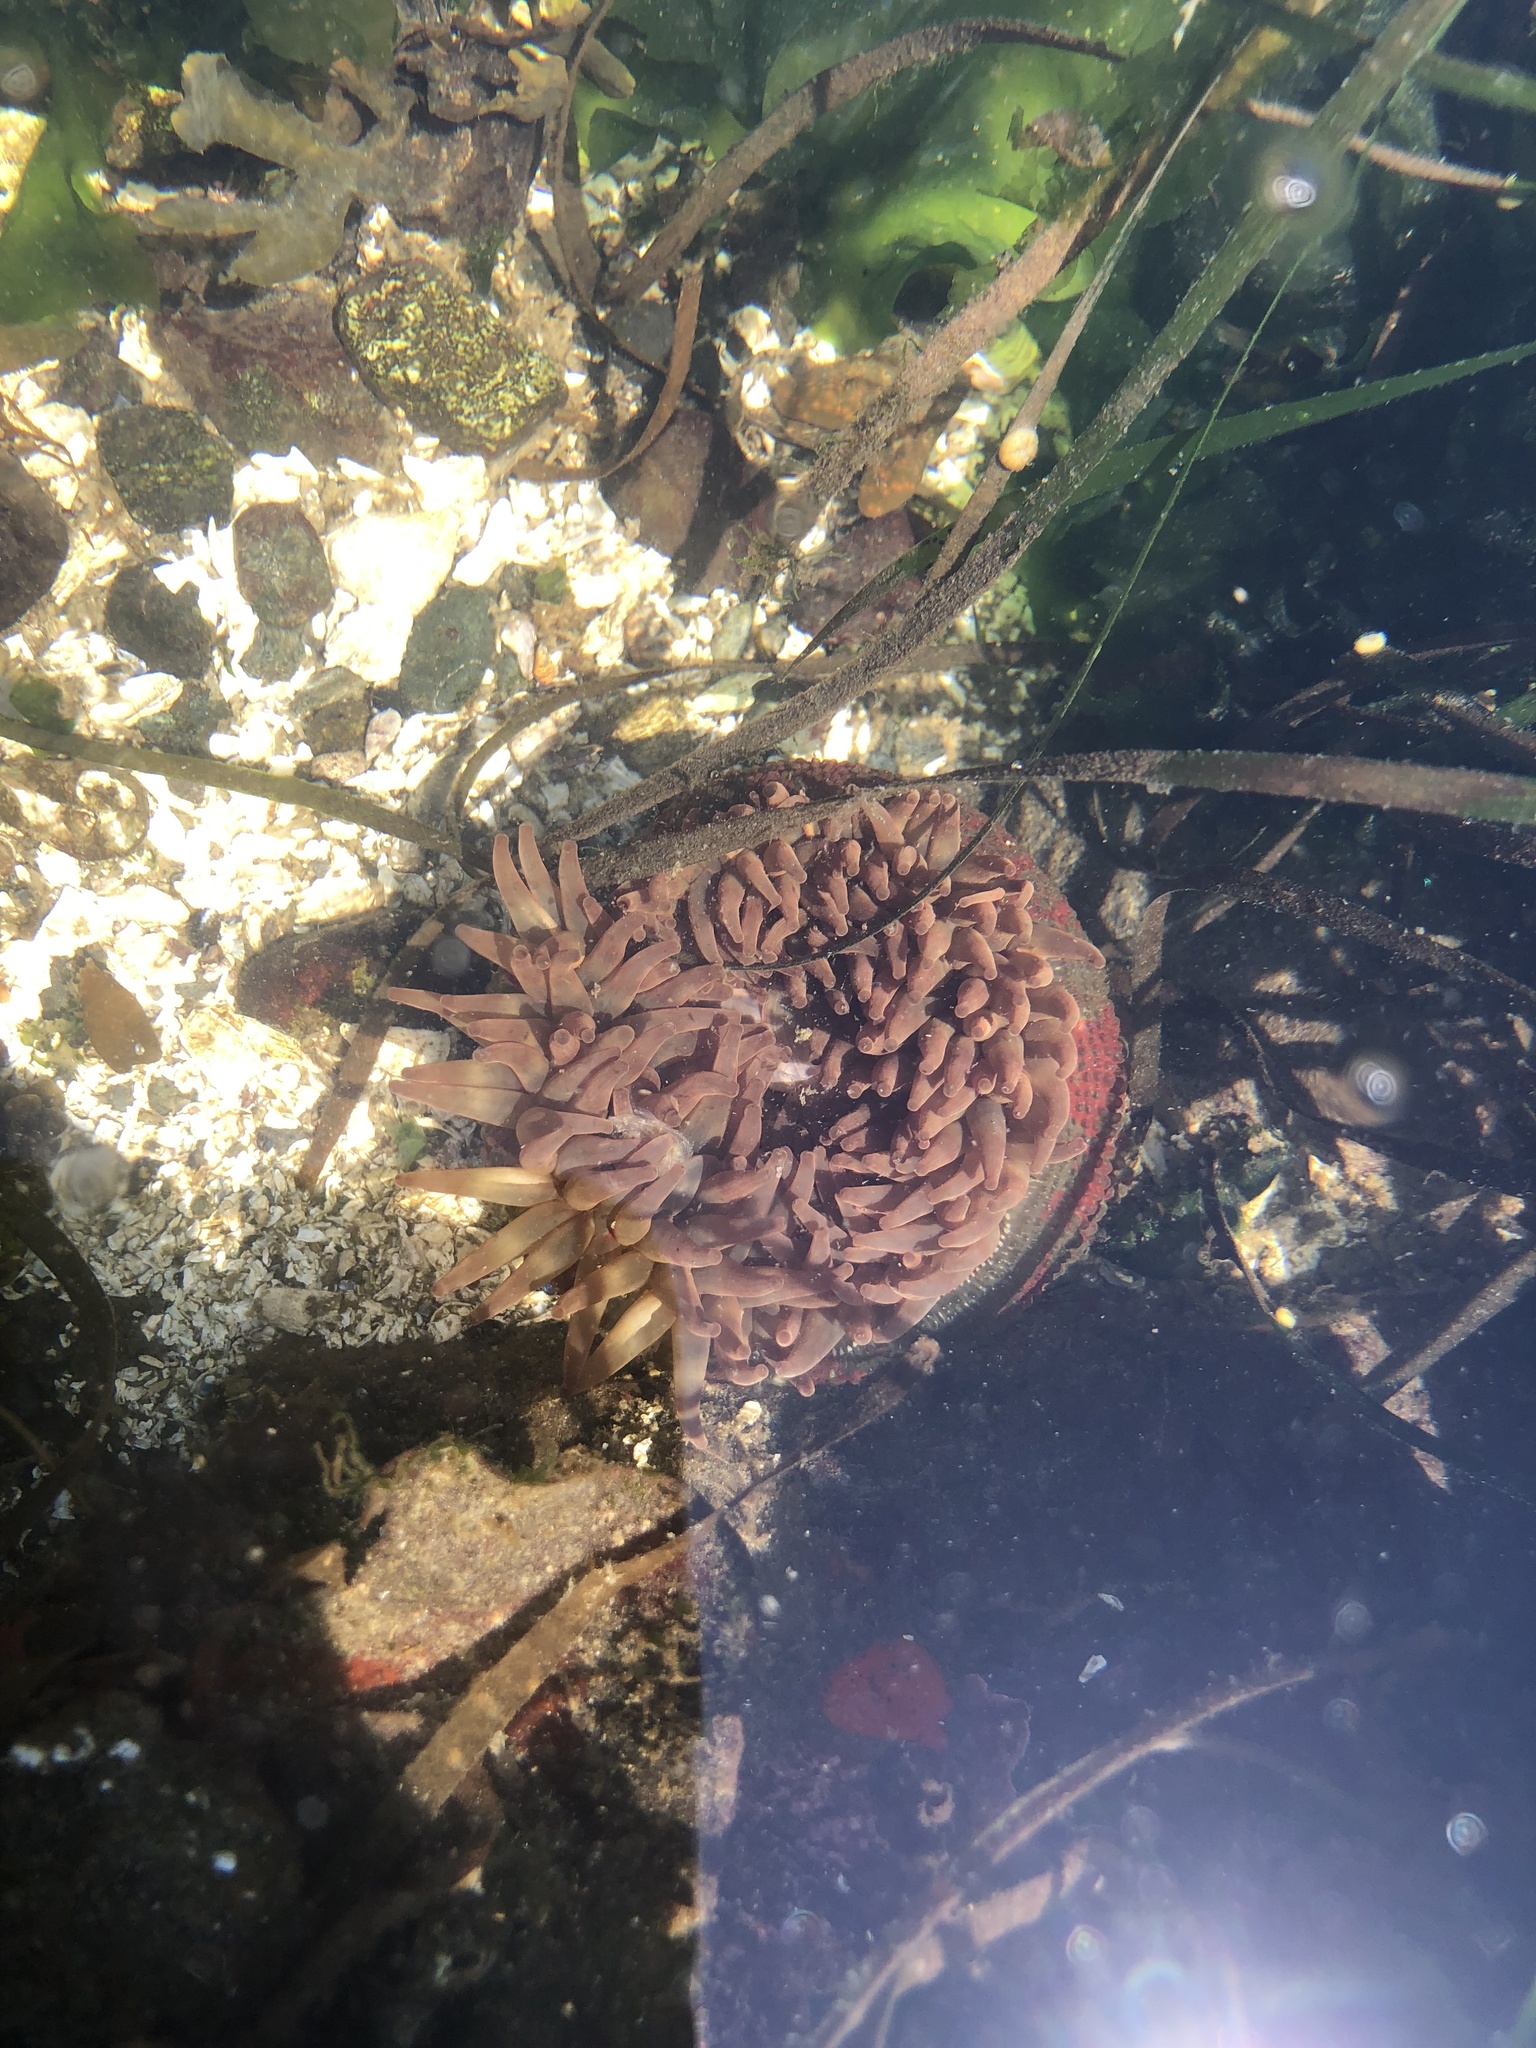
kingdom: Animalia
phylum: Cnidaria
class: Anthozoa
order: Actiniaria
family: Actiniidae
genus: Urticina
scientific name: Urticina grebelnyi
